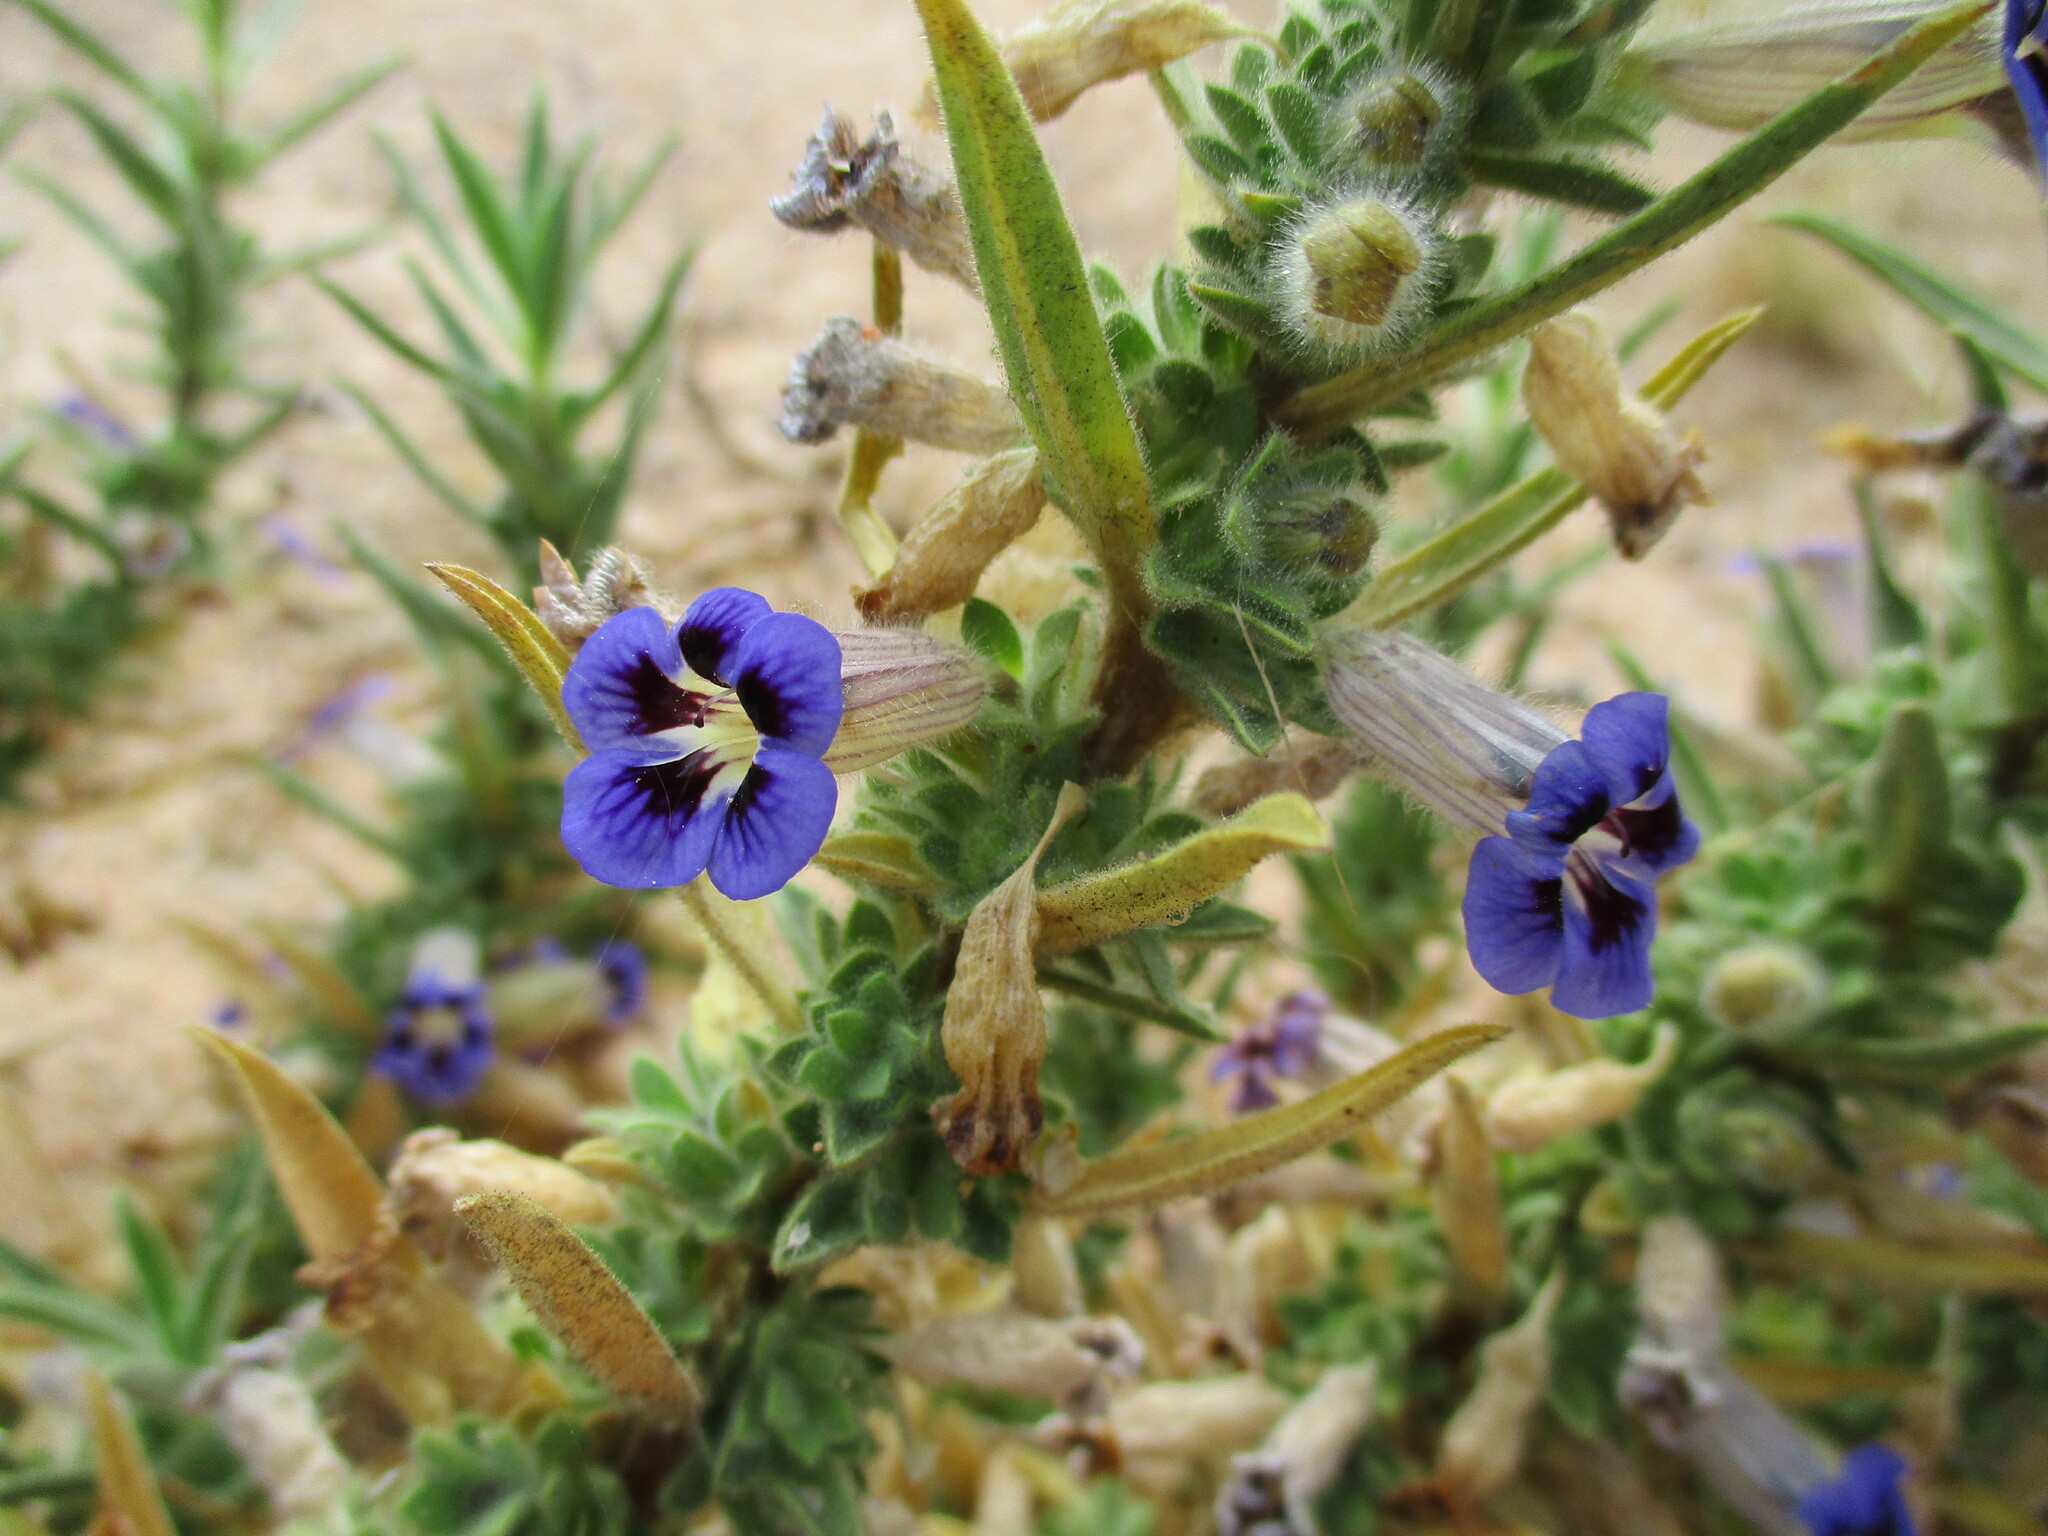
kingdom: Plantae
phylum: Tracheophyta
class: Magnoliopsida
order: Lamiales
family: Scrophulariaceae
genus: Aptosimum
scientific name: Aptosimum arenarium
